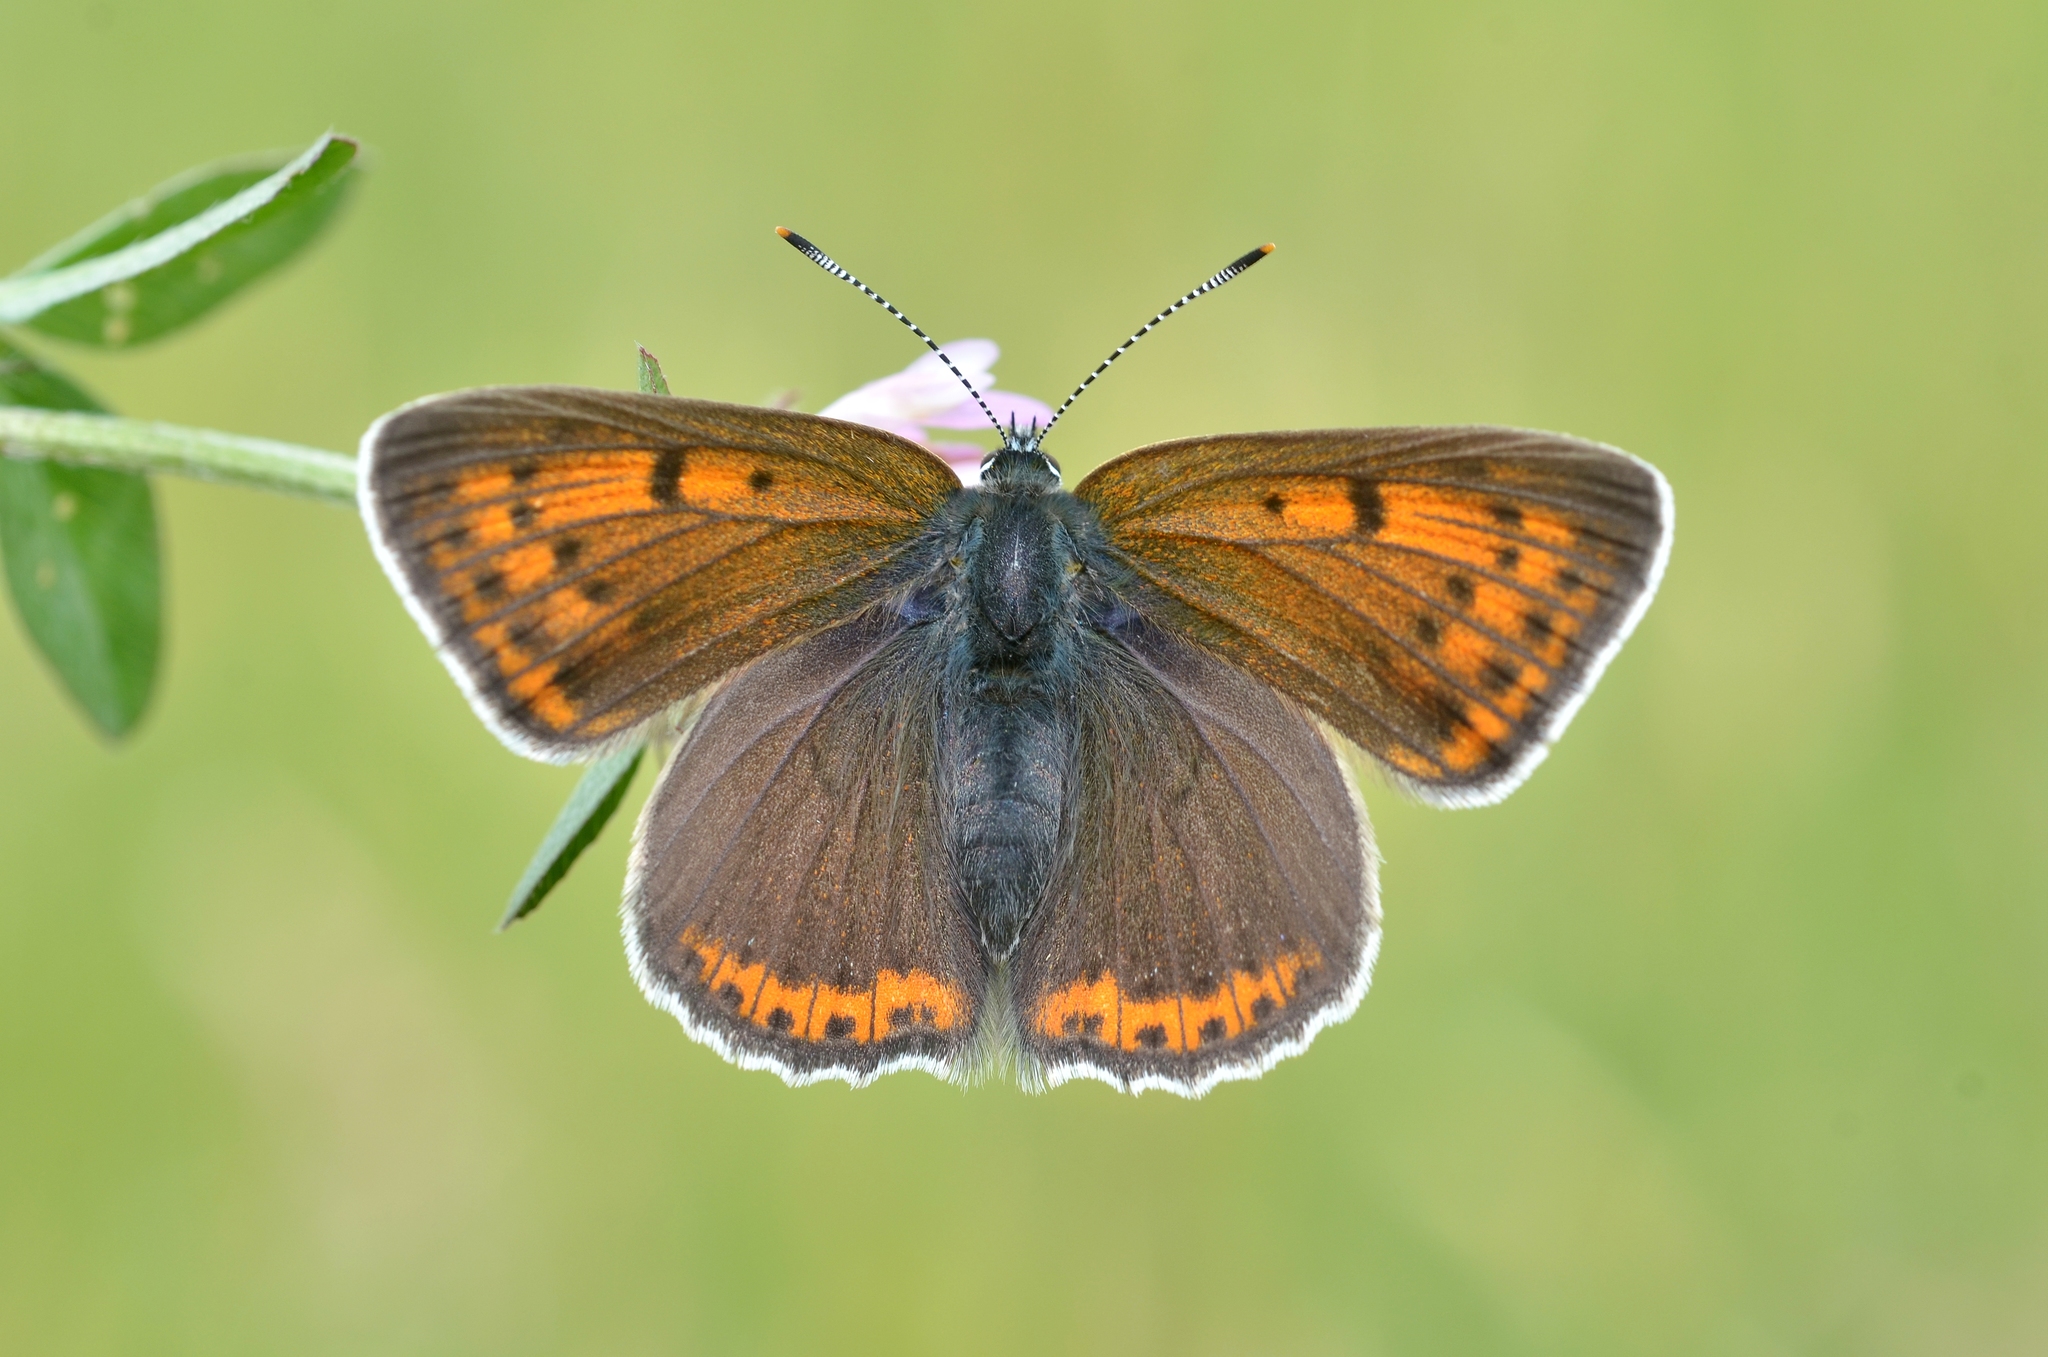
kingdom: Animalia
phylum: Arthropoda
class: Insecta
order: Lepidoptera
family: Lycaenidae
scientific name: Lycaenidae
